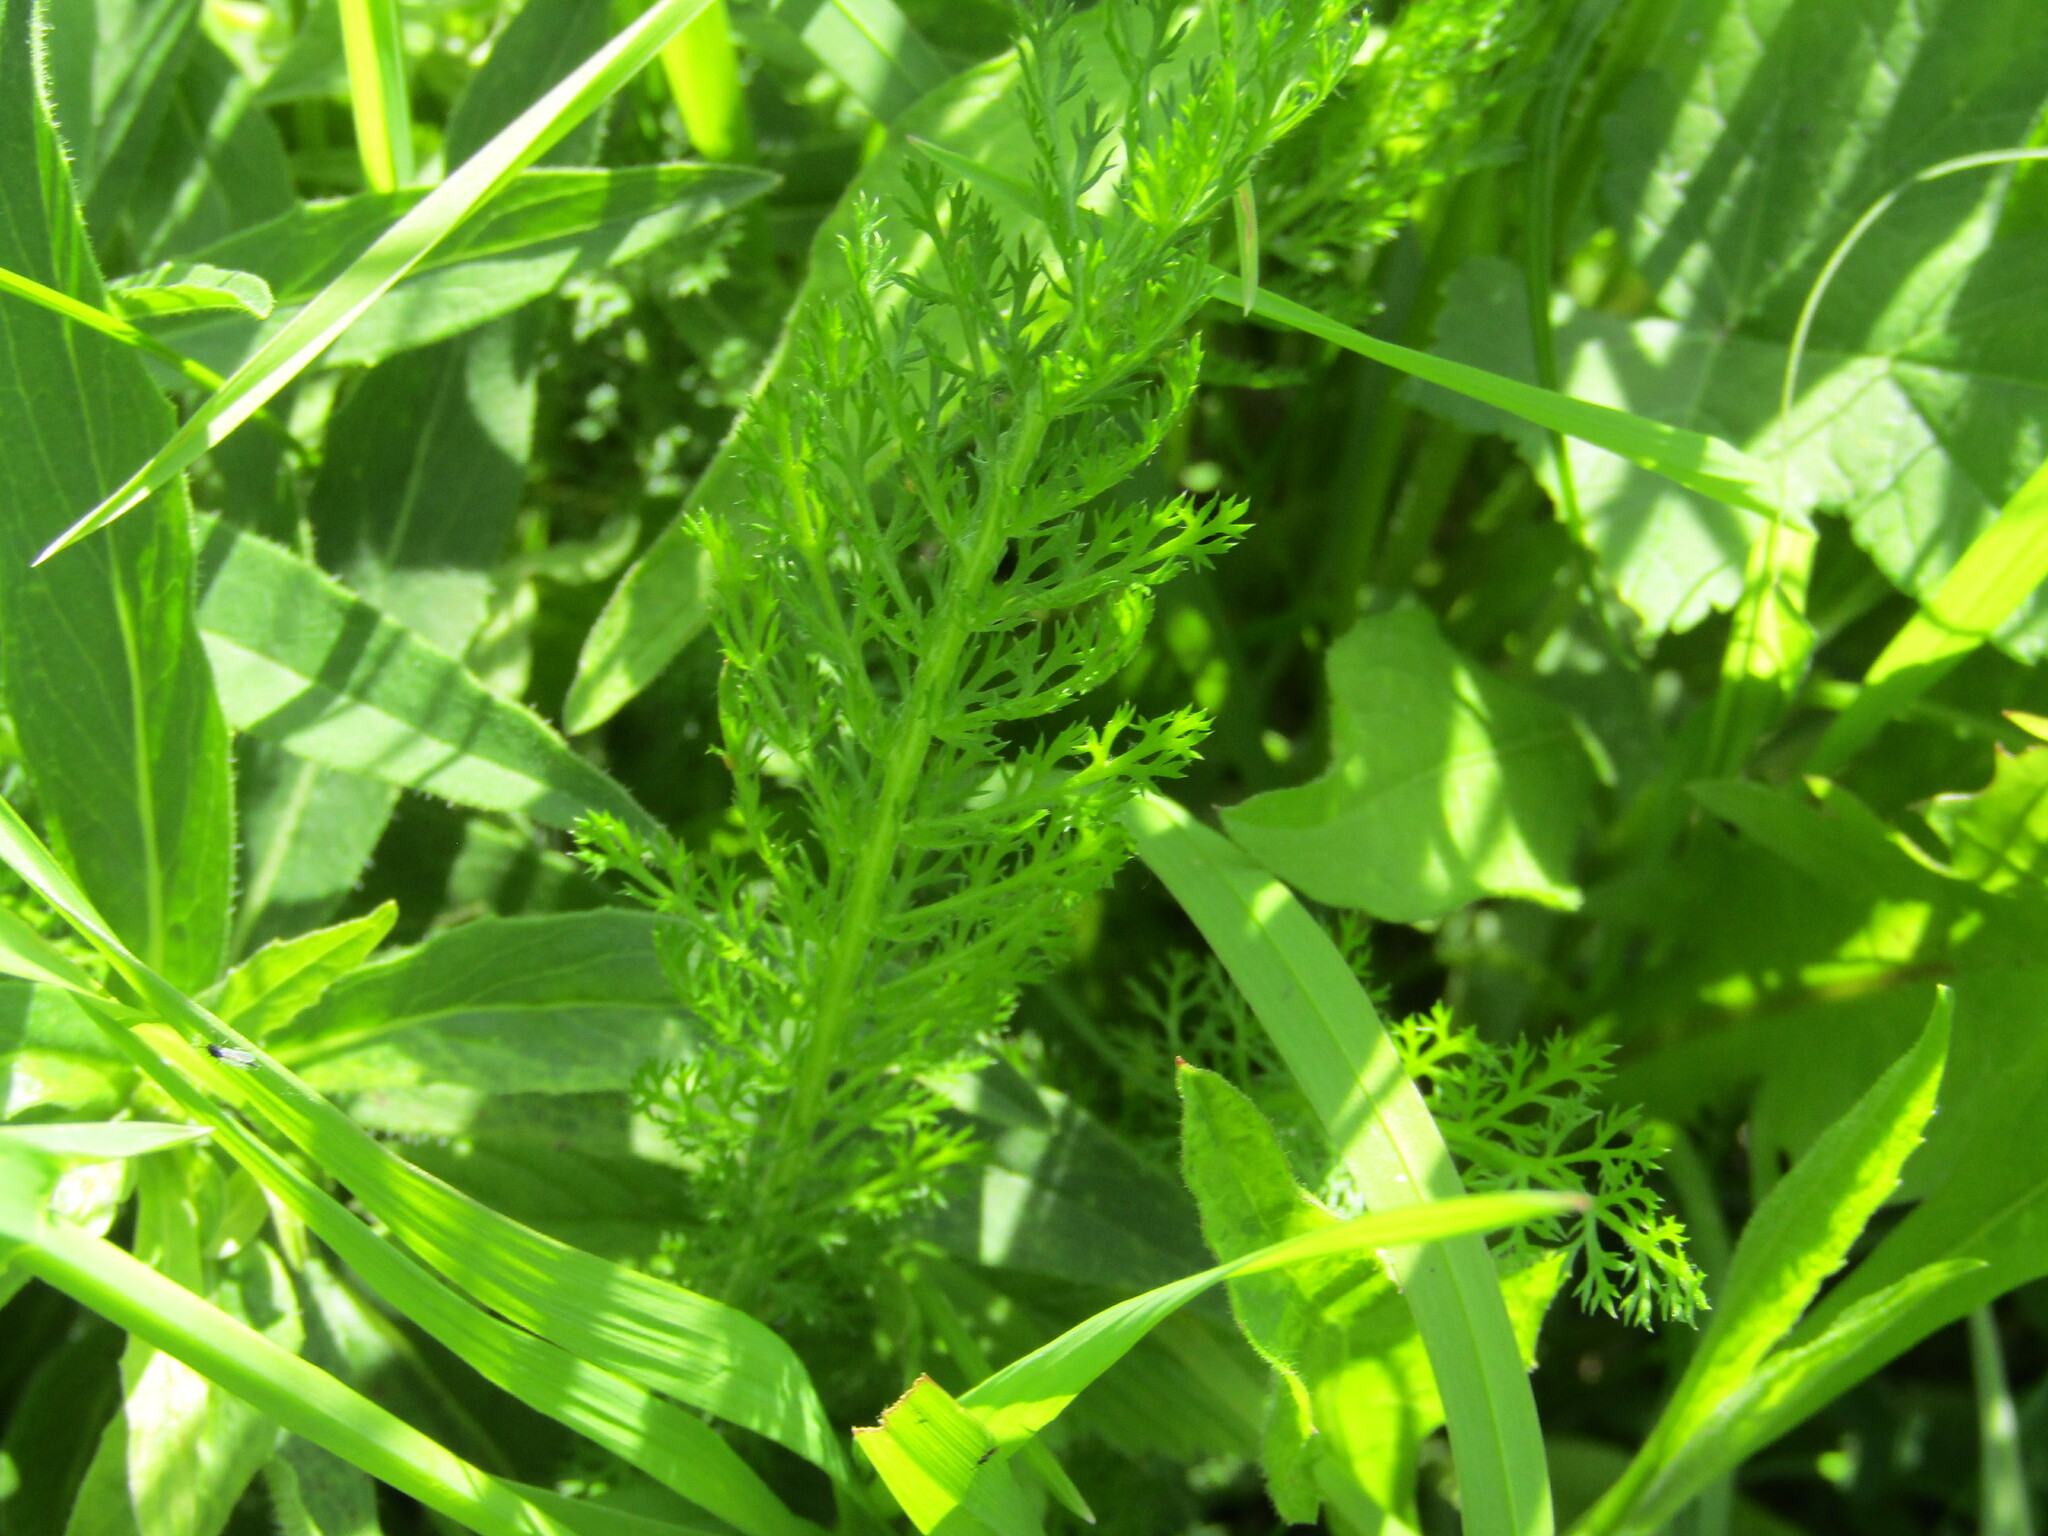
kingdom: Plantae
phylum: Tracheophyta
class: Magnoliopsida
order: Asterales
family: Asteraceae
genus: Achillea
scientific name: Achillea millefolium
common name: Yarrow
